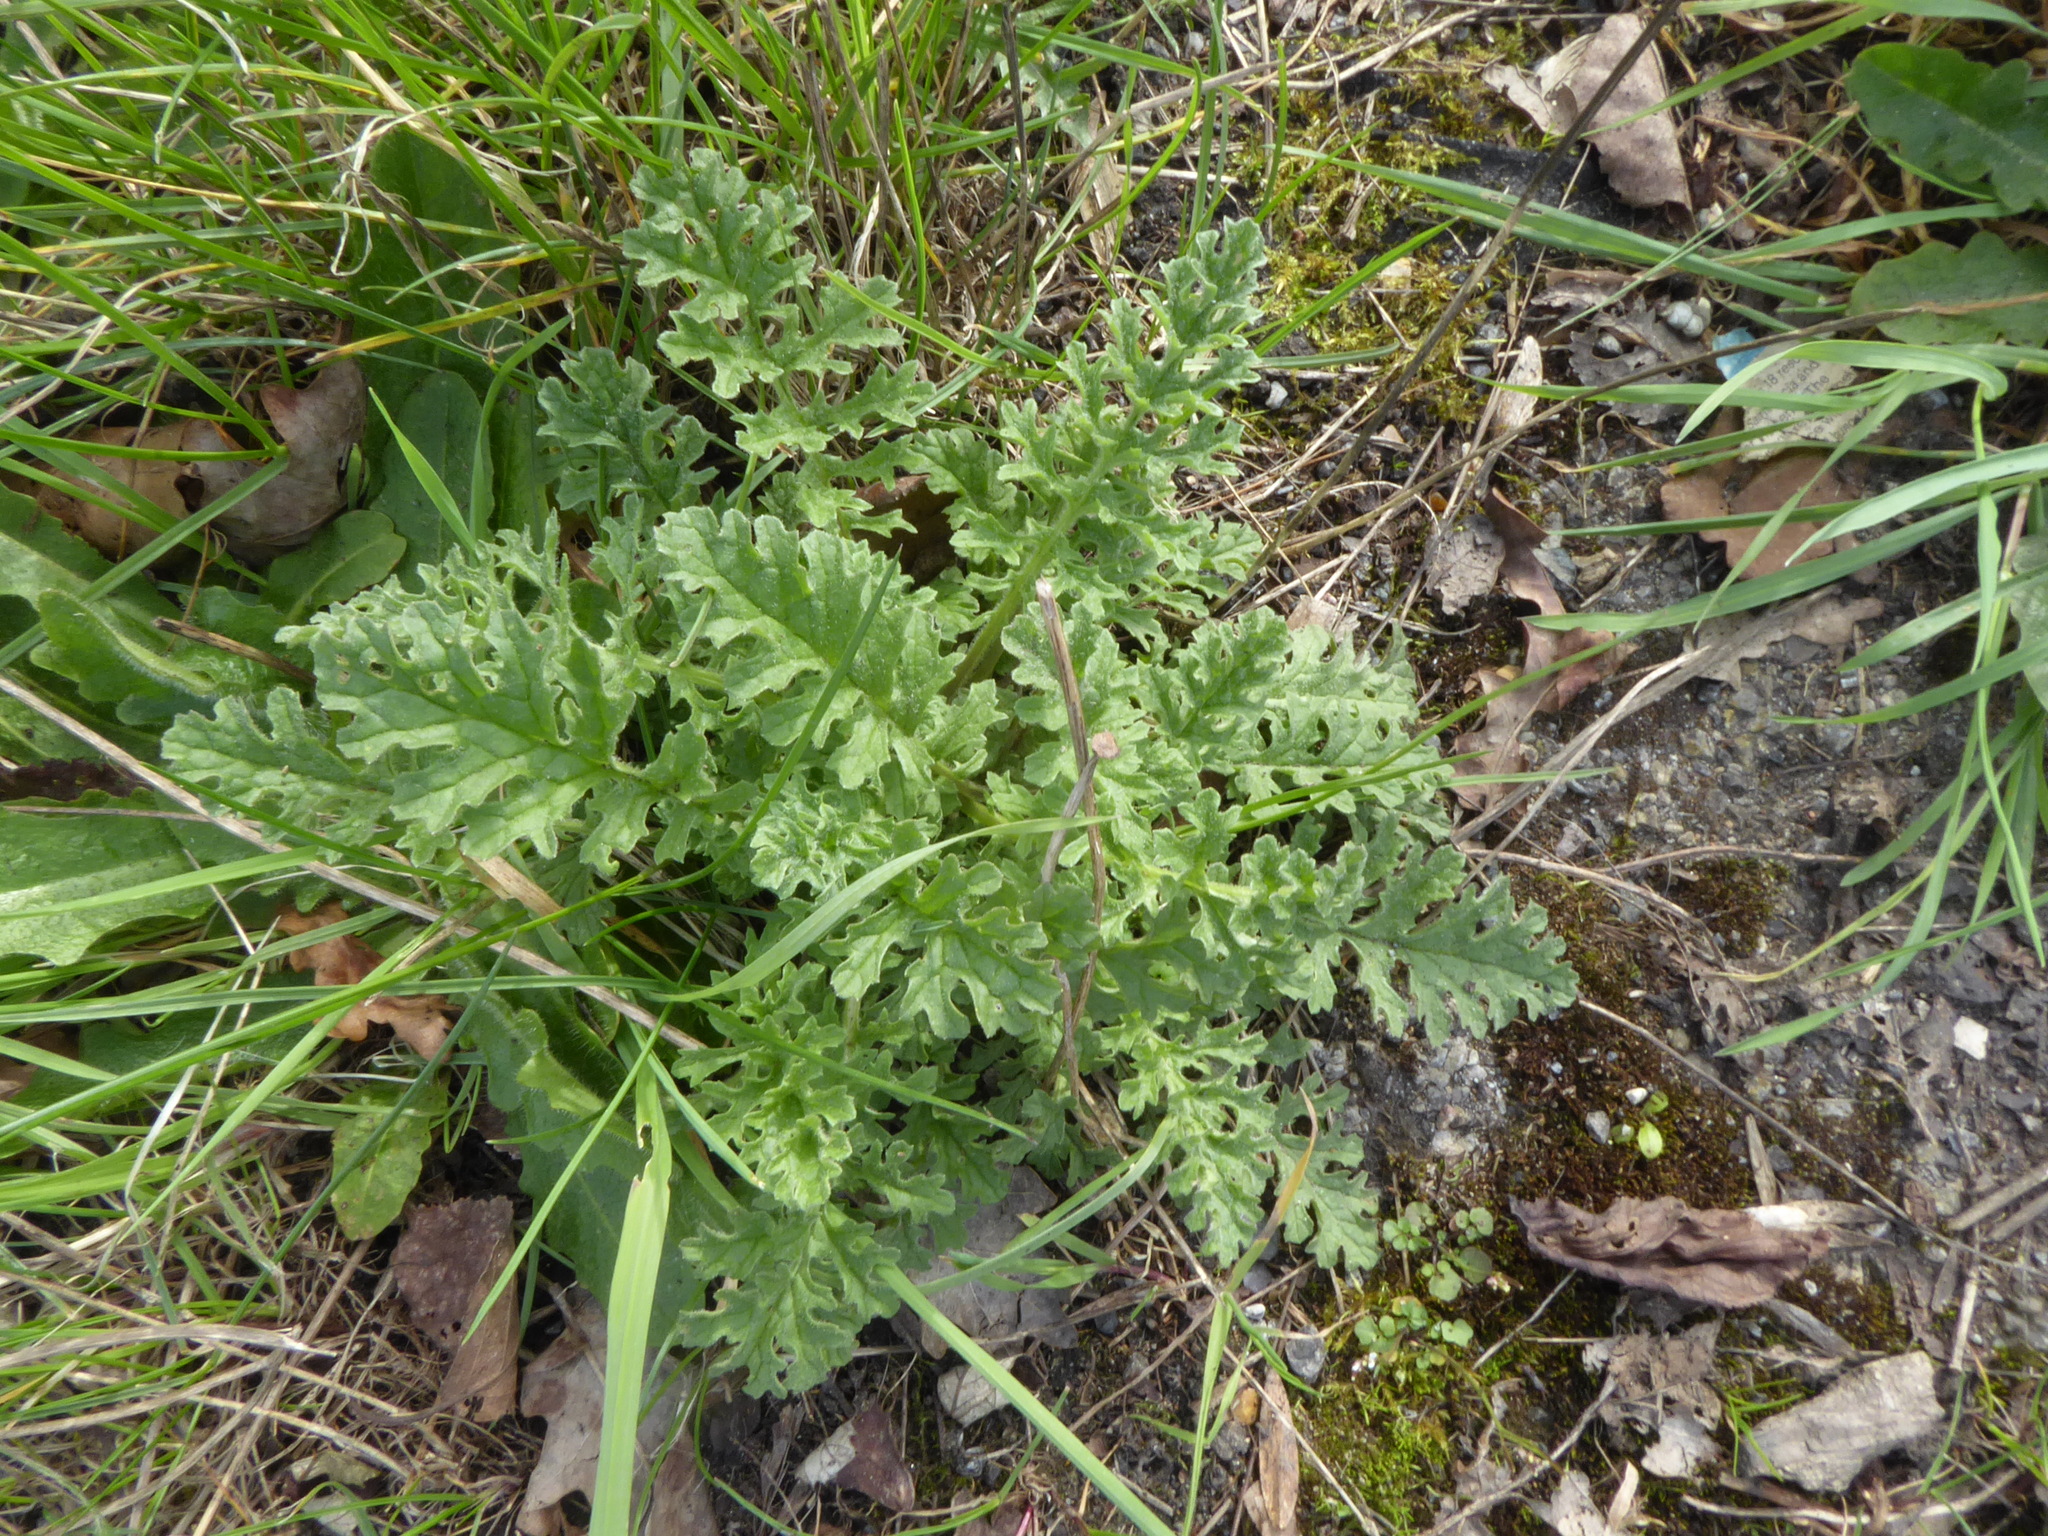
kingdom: Plantae
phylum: Tracheophyta
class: Magnoliopsida
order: Asterales
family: Asteraceae
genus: Jacobaea
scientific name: Jacobaea vulgaris
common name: Stinking willie
